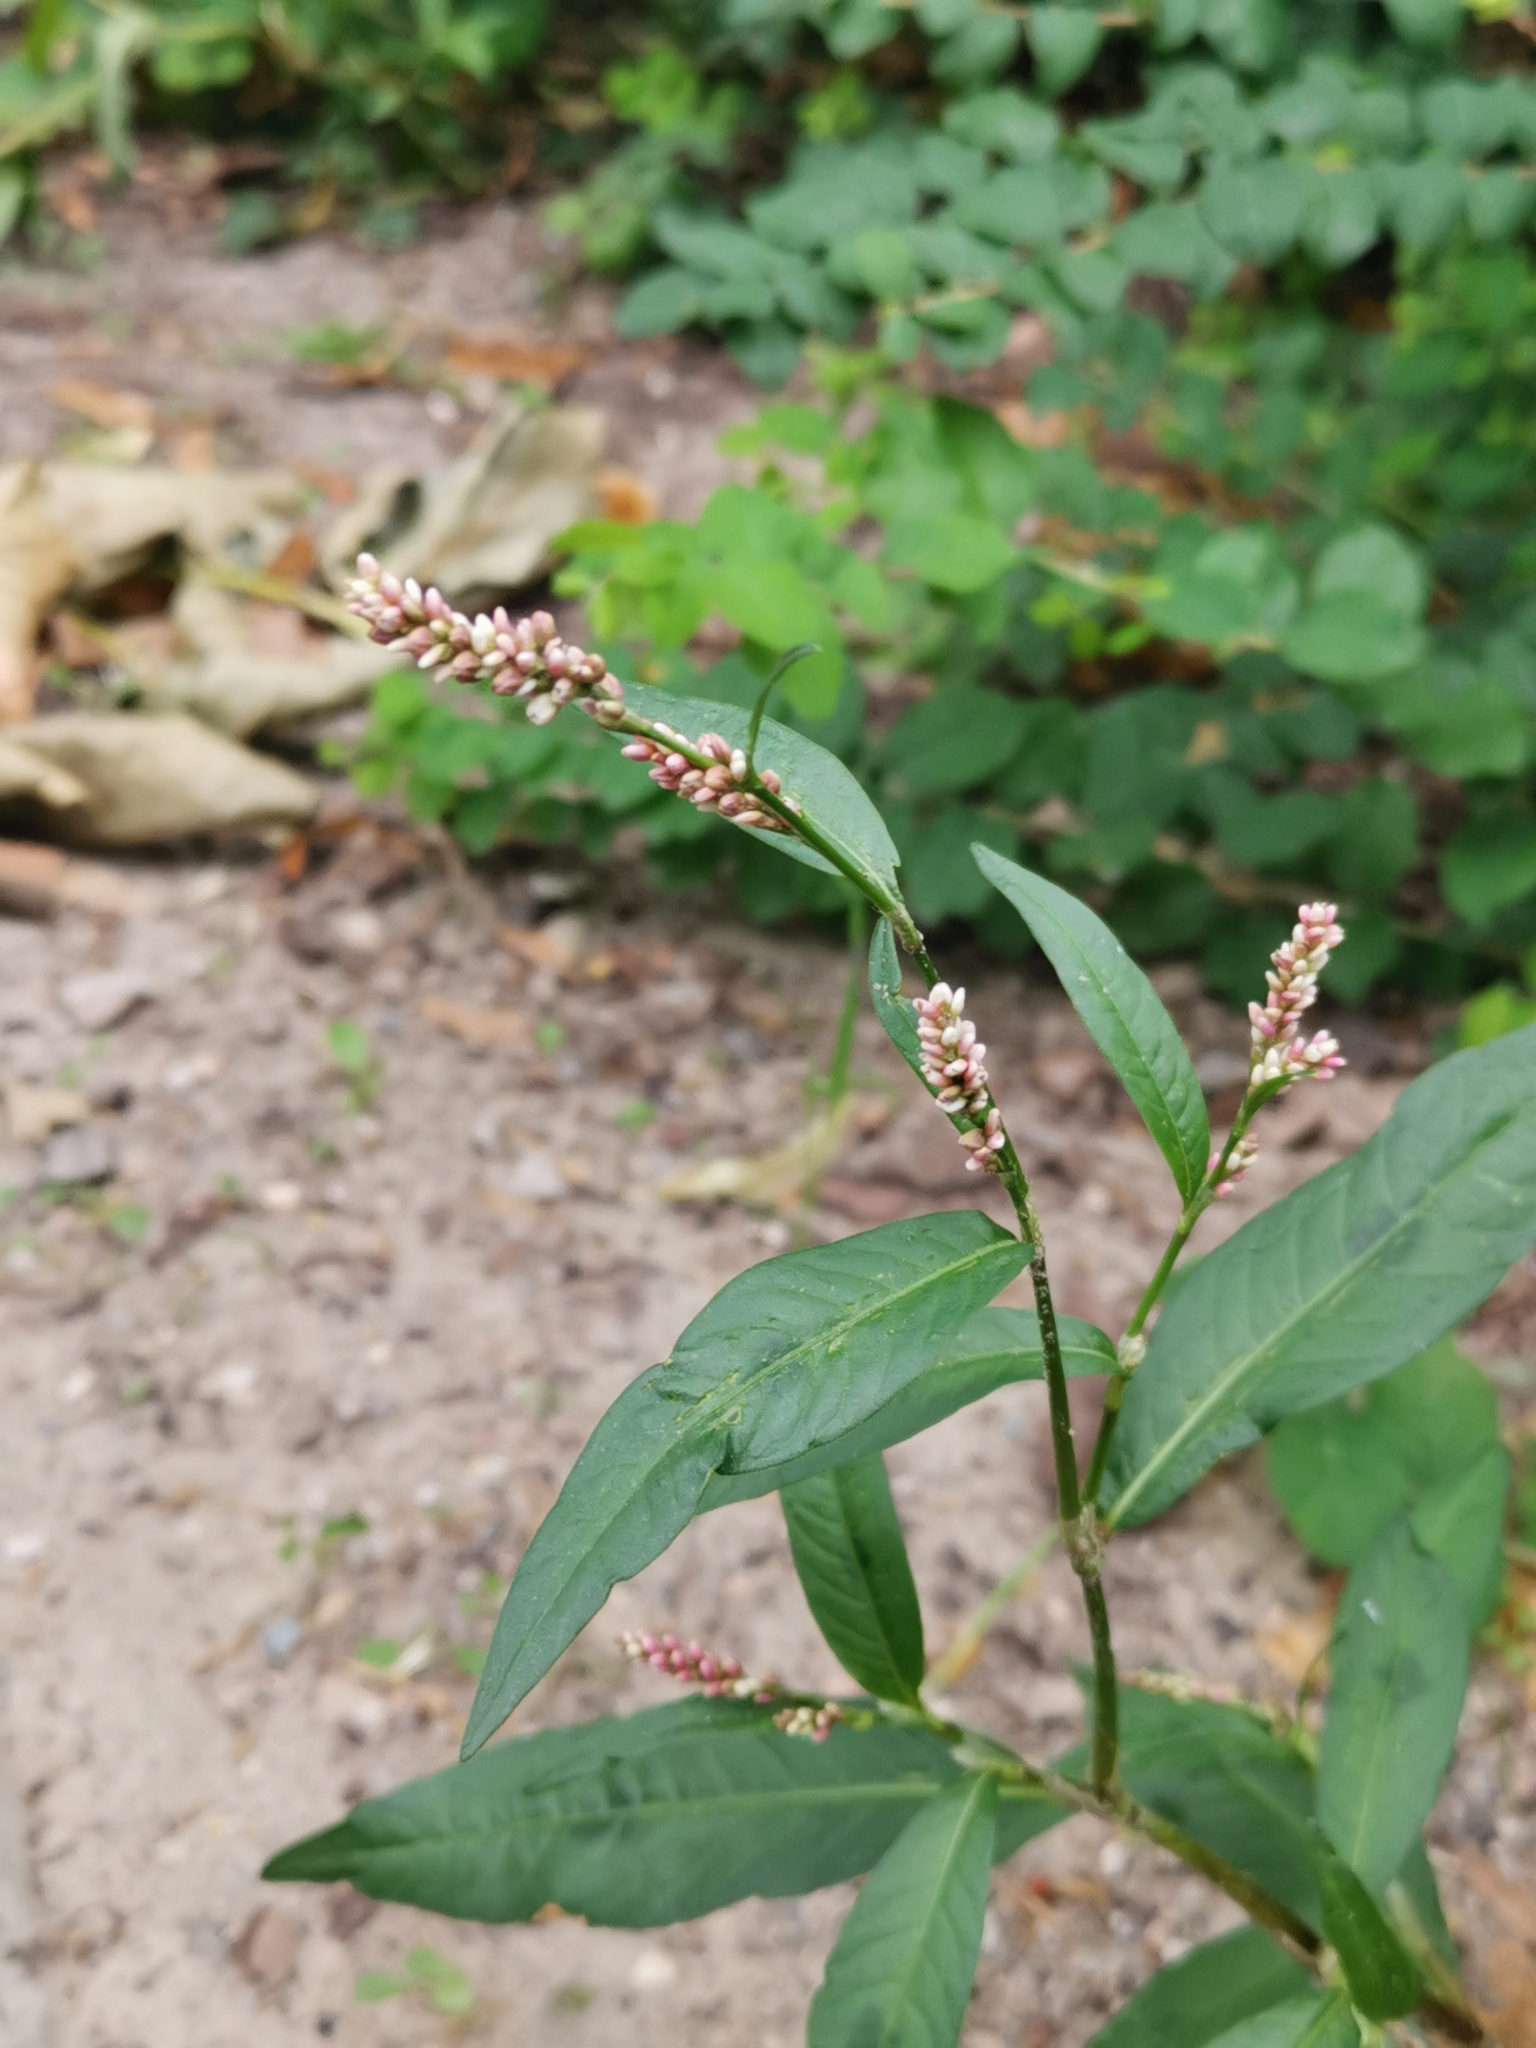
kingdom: Plantae
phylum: Tracheophyta
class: Magnoliopsida
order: Caryophyllales
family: Polygonaceae
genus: Persicaria
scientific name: Persicaria maculosa
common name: Redshank
